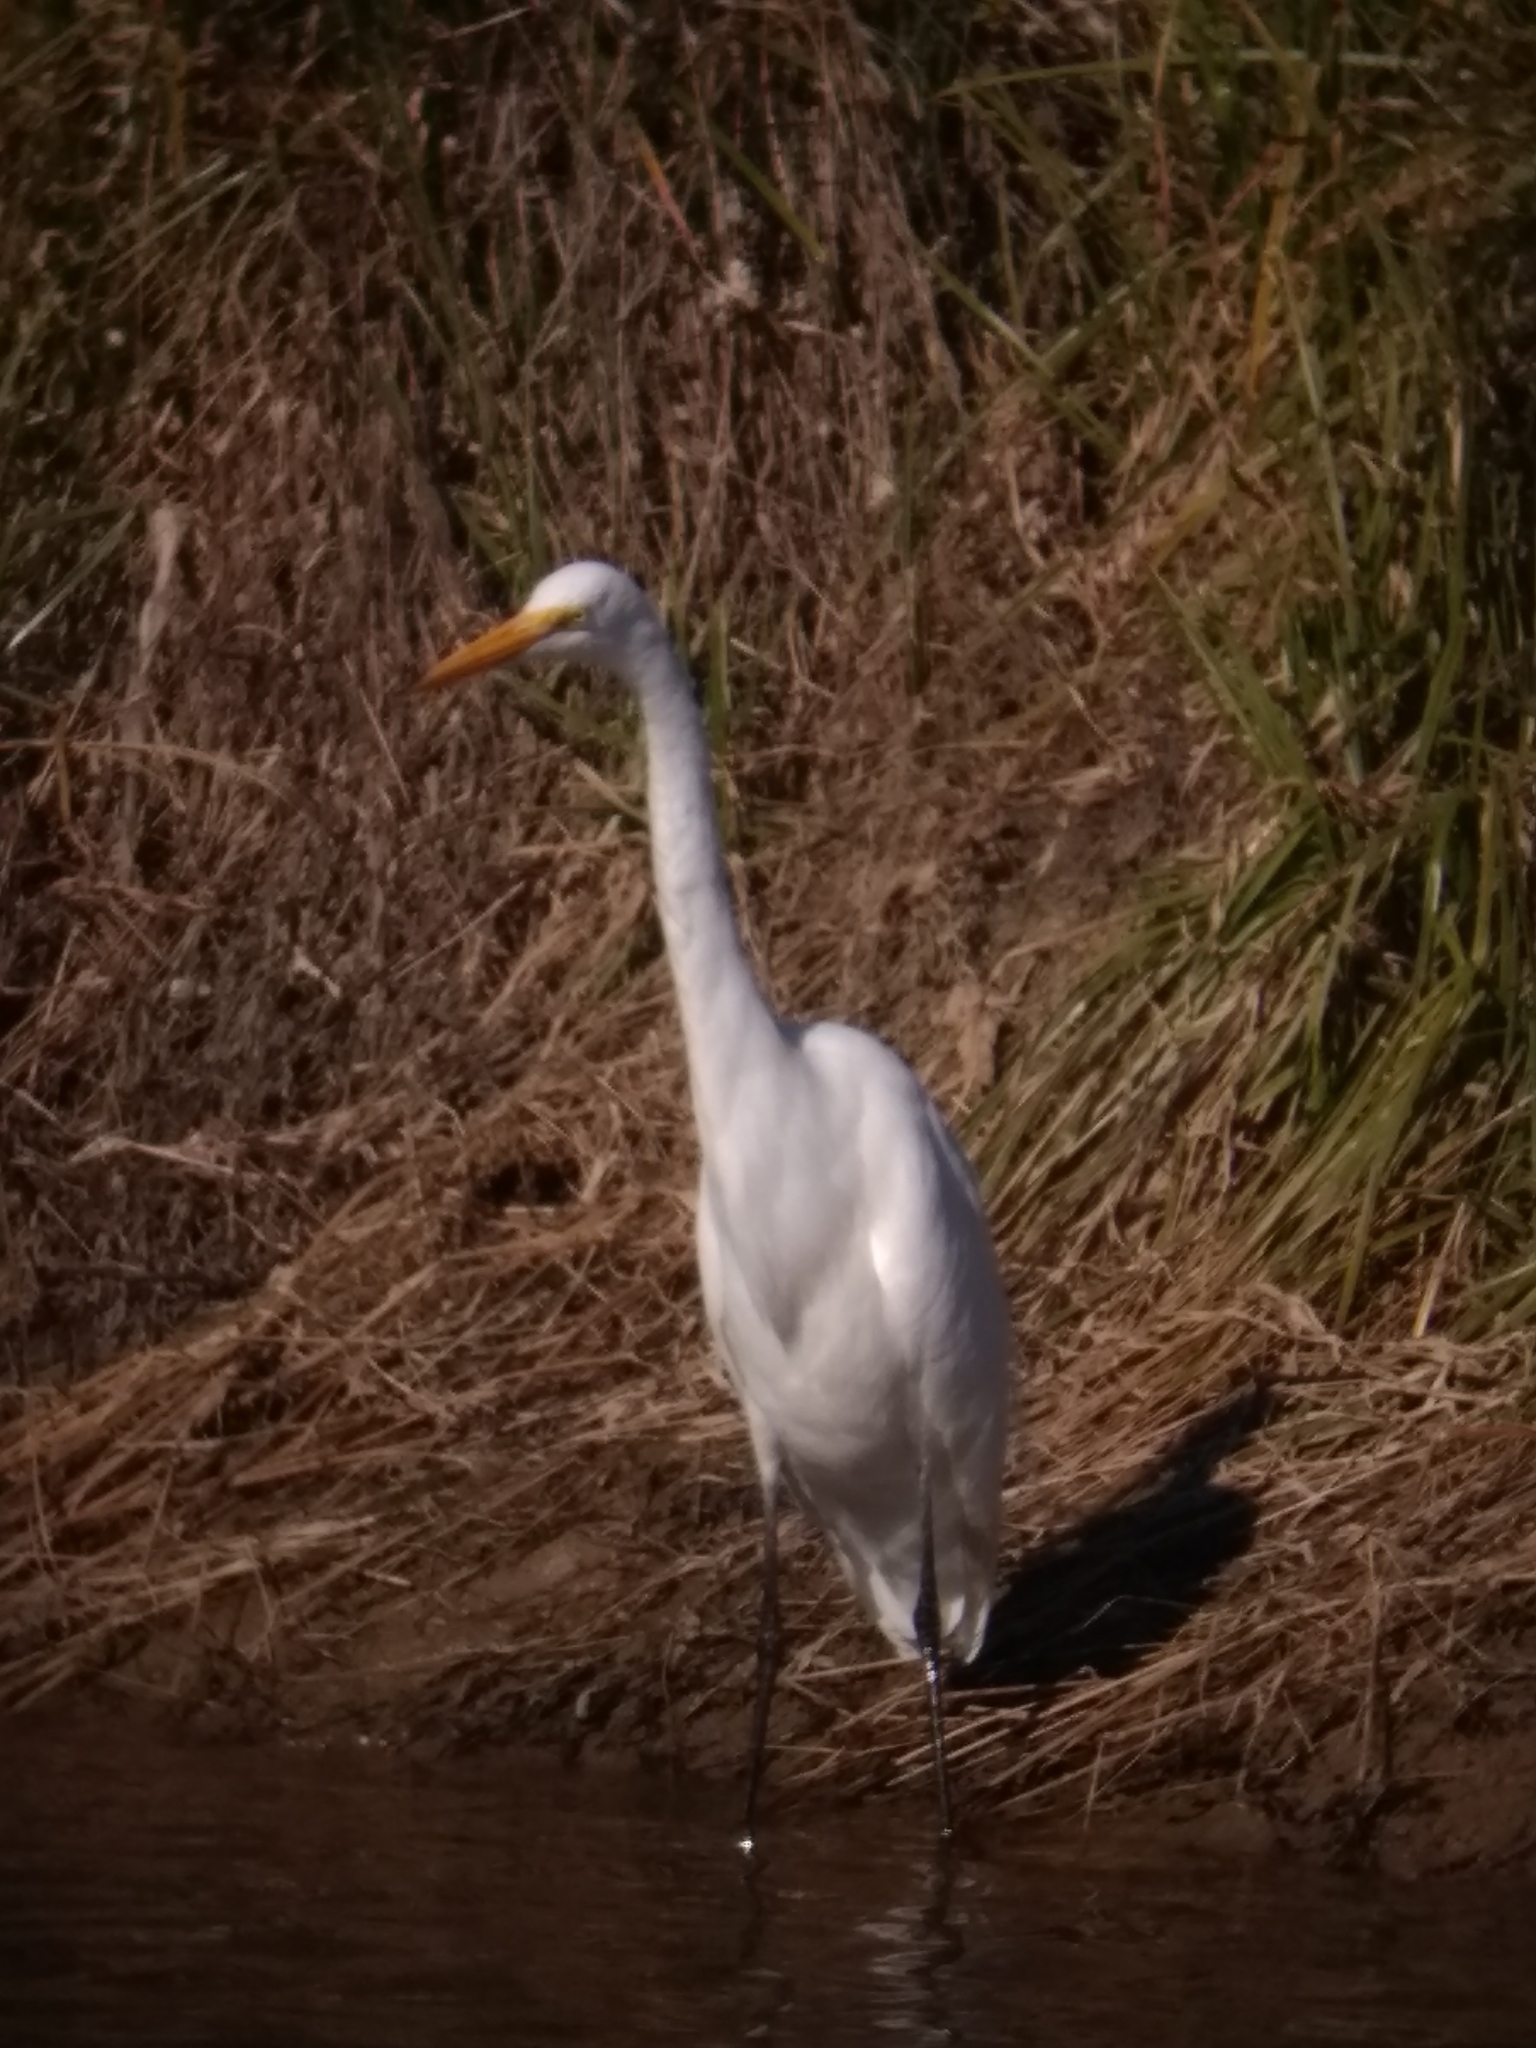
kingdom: Animalia
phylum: Chordata
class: Aves
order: Pelecaniformes
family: Ardeidae
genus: Ardea
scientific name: Ardea alba
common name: Great egret
